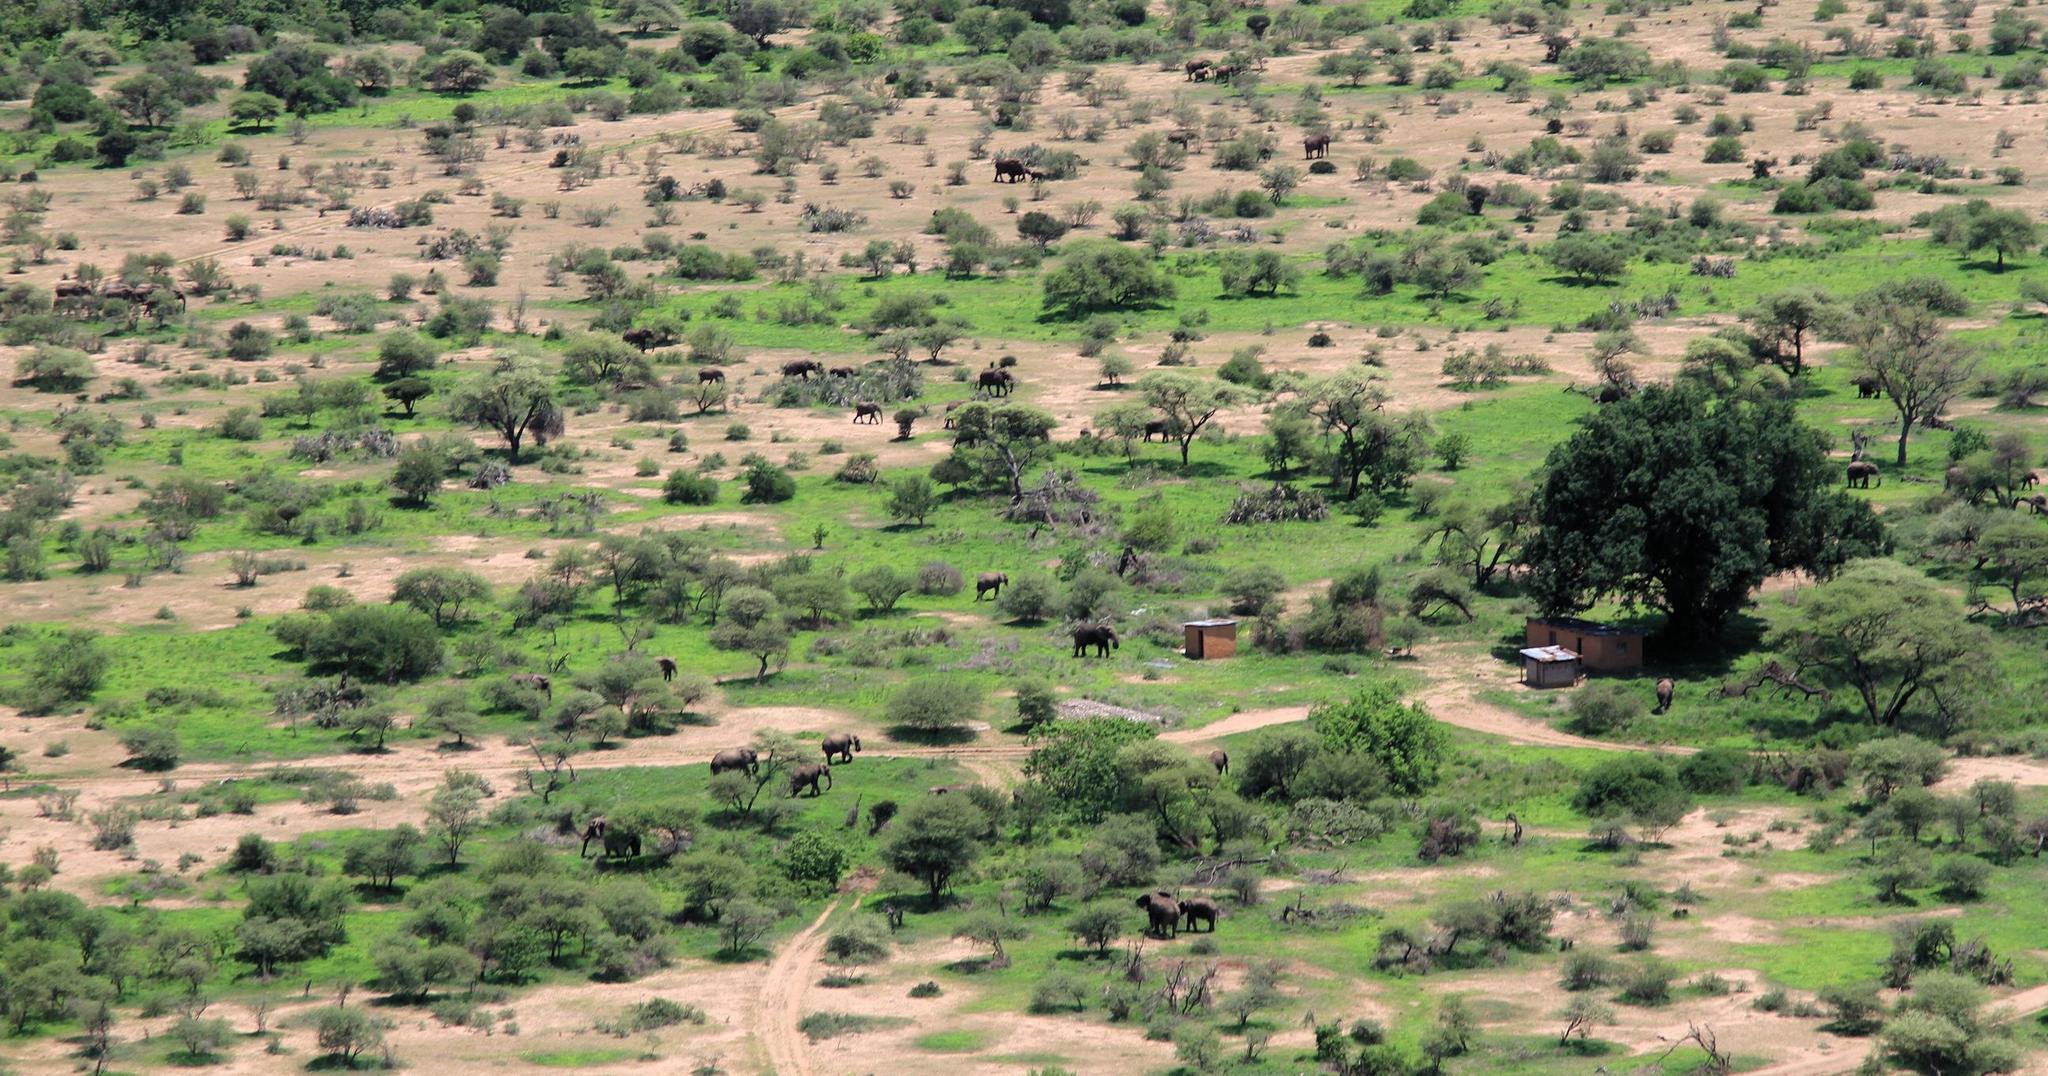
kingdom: Animalia
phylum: Chordata
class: Mammalia
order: Proboscidea
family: Elephantidae
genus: Loxodonta
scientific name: Loxodonta africana
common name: African elephant
